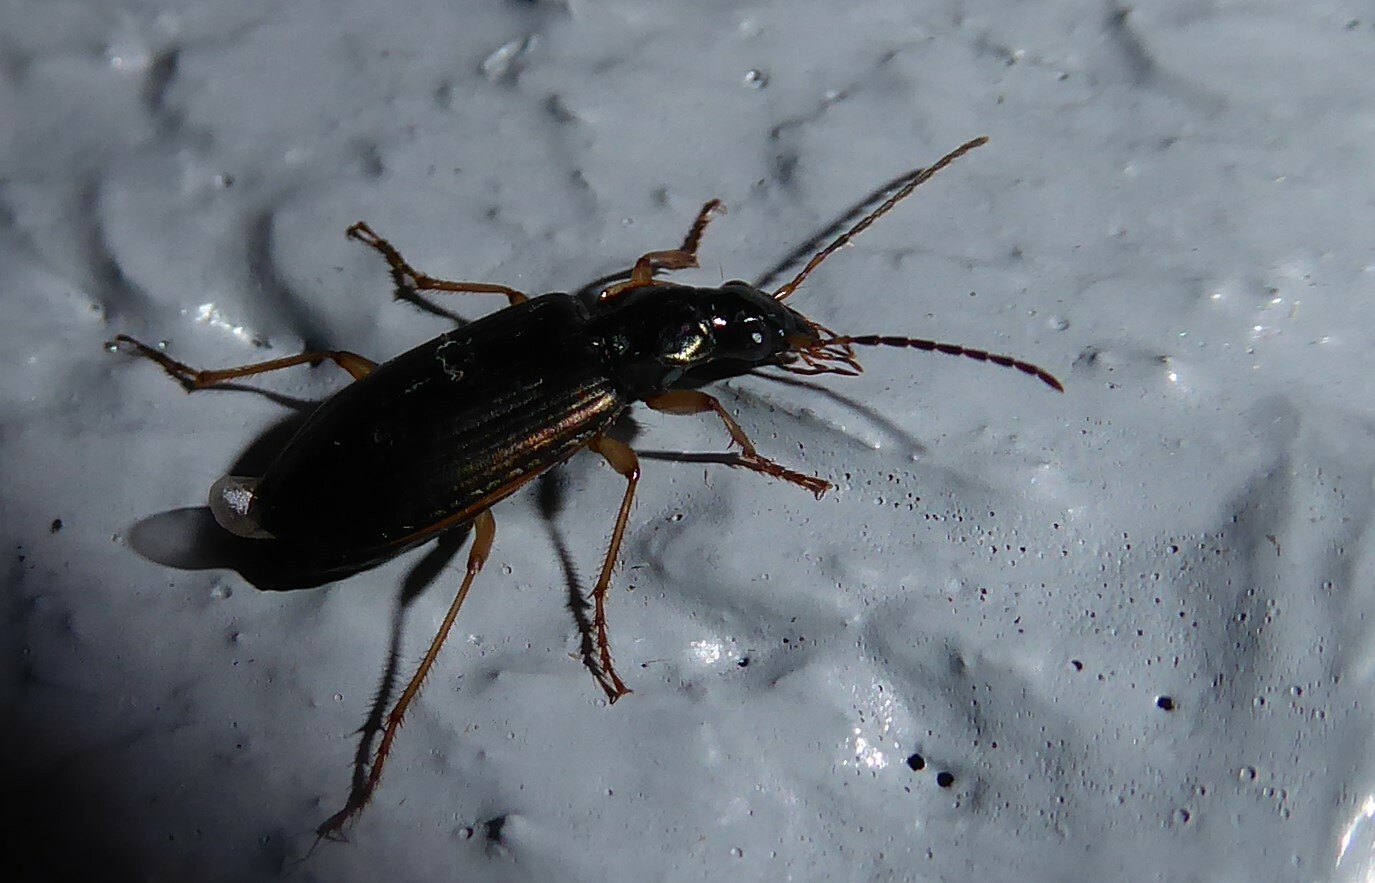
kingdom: Animalia
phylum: Arthropoda
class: Insecta
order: Coleoptera
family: Carabidae
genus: Notagonum
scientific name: Notagonum submetallicum
